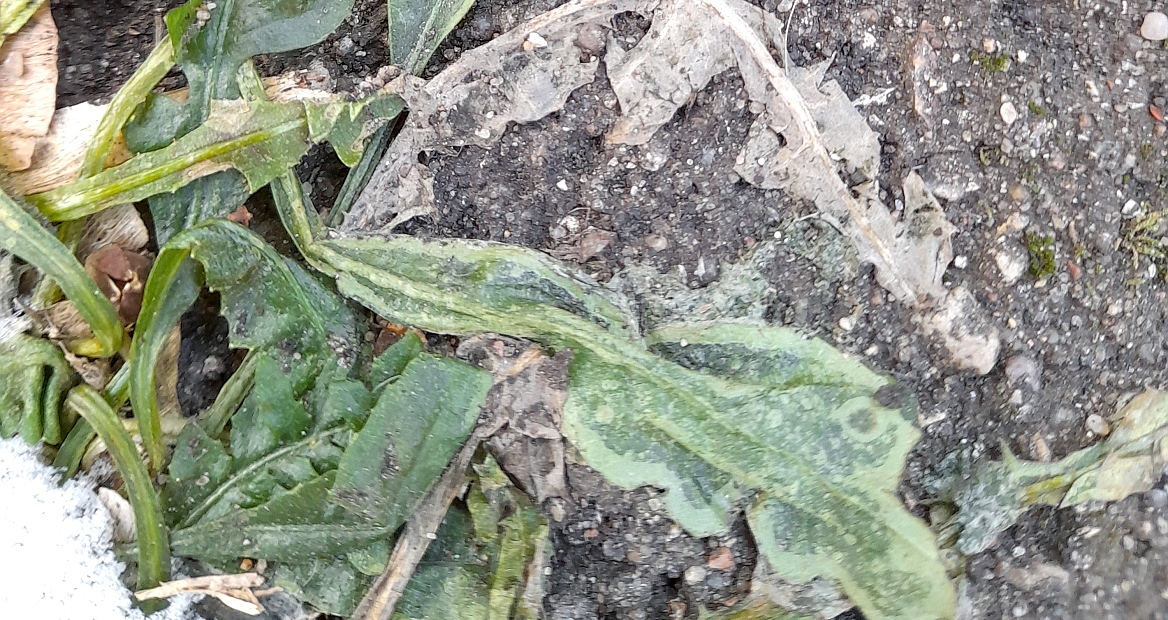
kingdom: Plantae
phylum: Tracheophyta
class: Magnoliopsida
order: Brassicales
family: Brassicaceae
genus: Capsella
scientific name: Capsella bursa-pastoris
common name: Shepherd's purse
